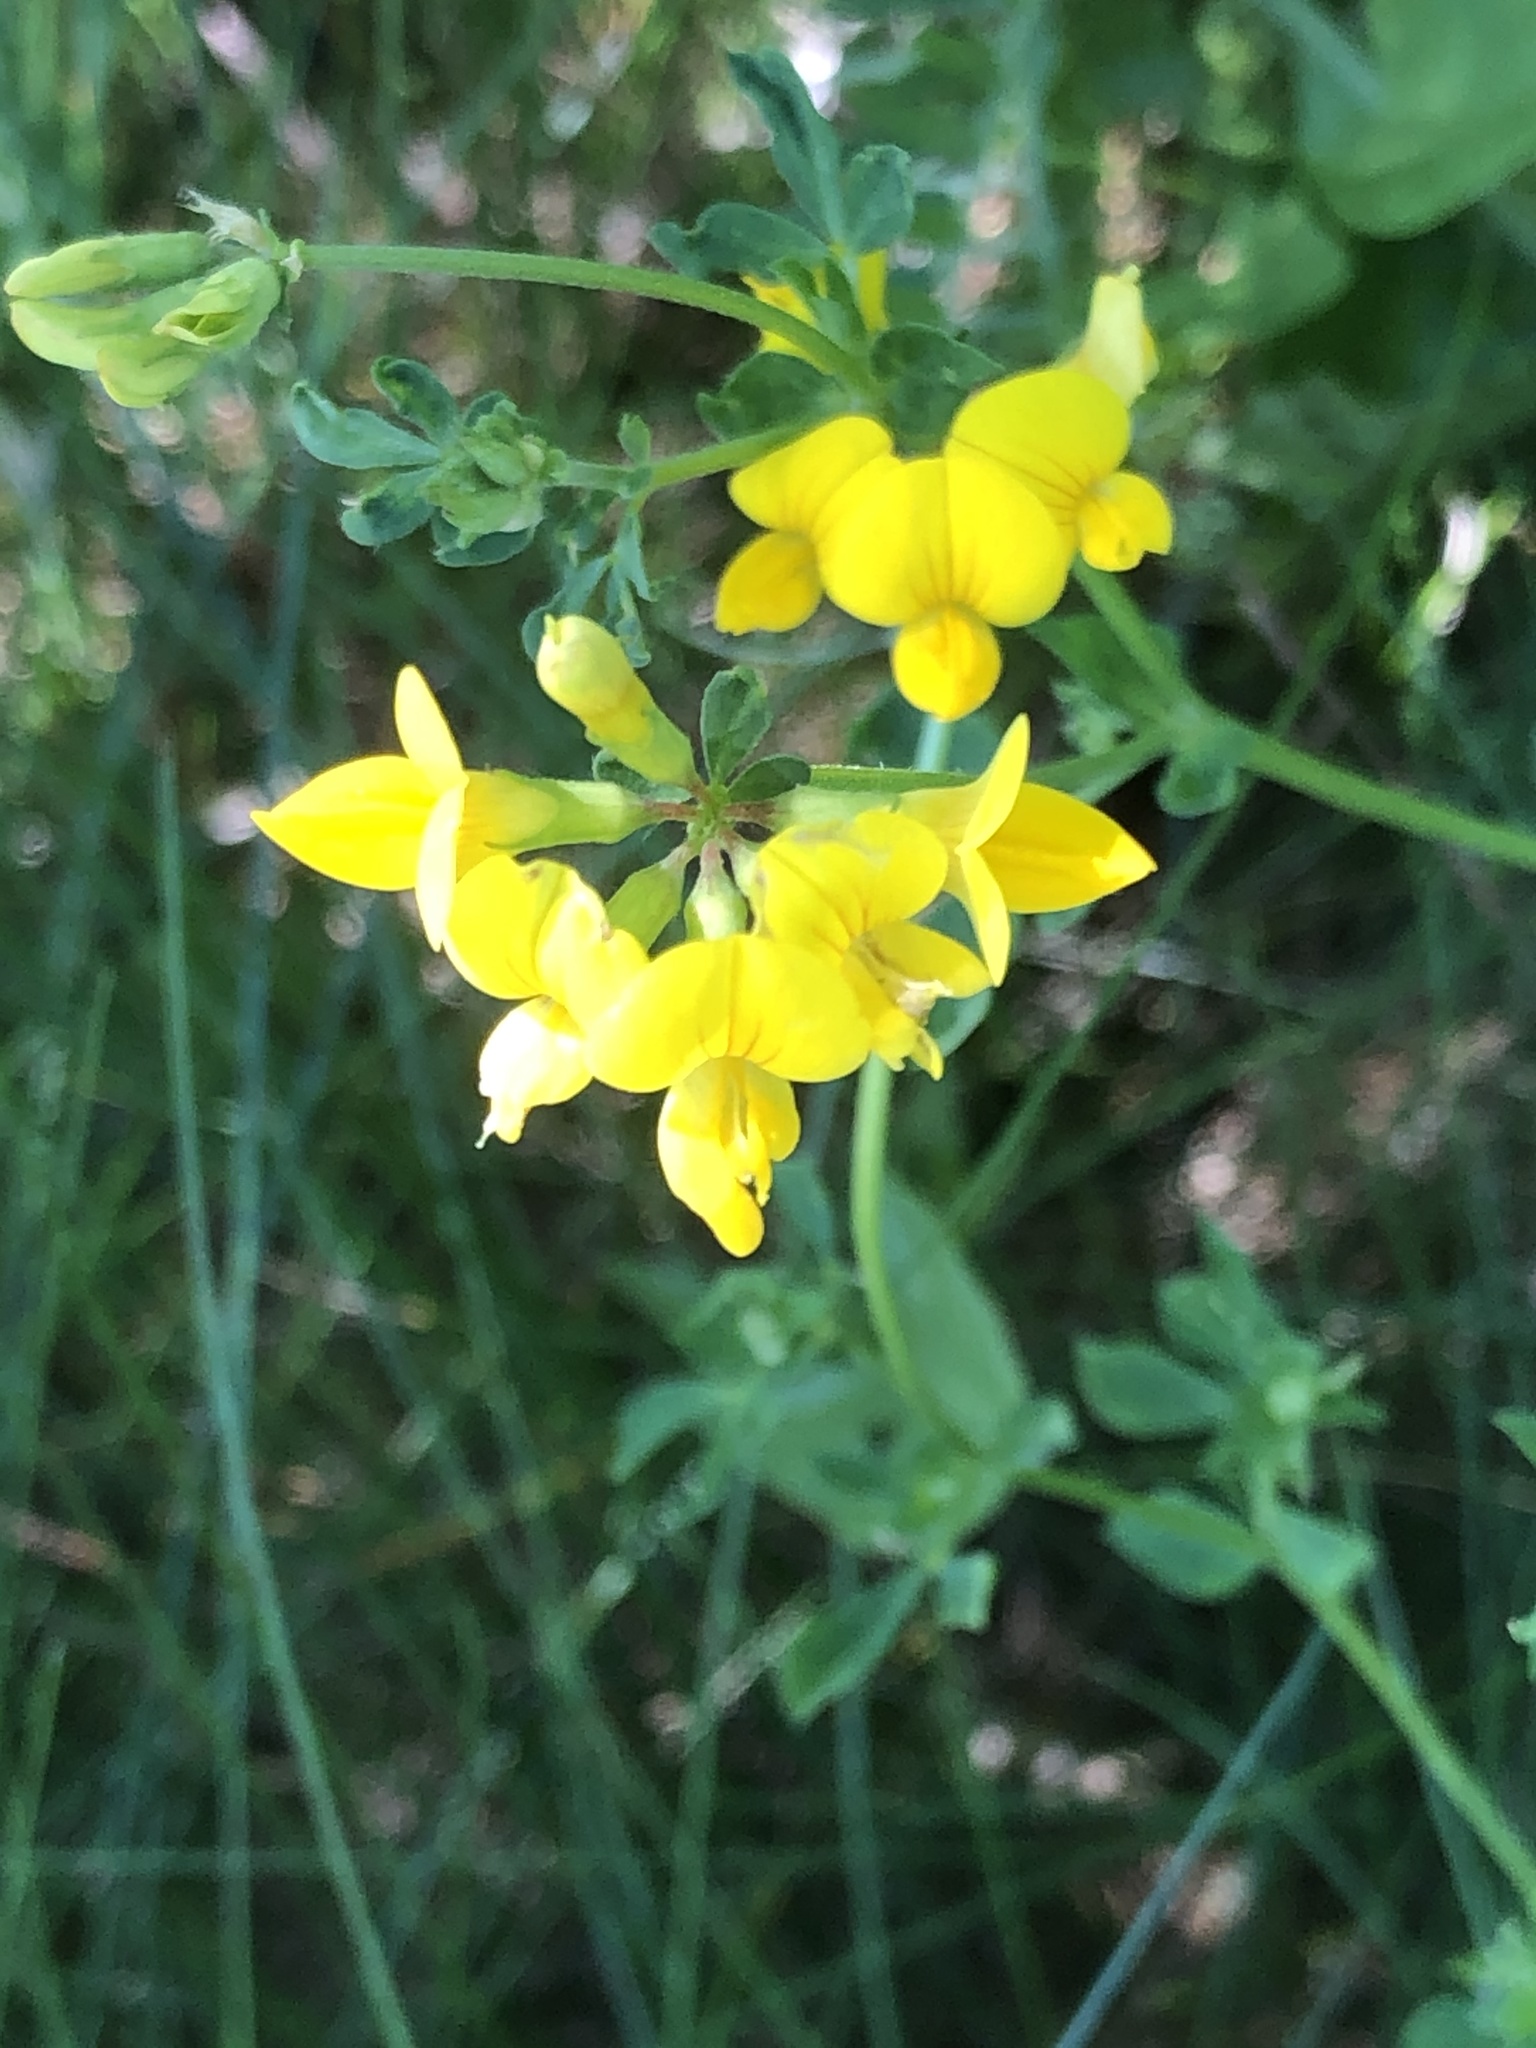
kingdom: Plantae
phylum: Tracheophyta
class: Magnoliopsida
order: Fabales
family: Fabaceae
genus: Lotus
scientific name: Lotus corniculatus
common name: Common bird's-foot-trefoil
